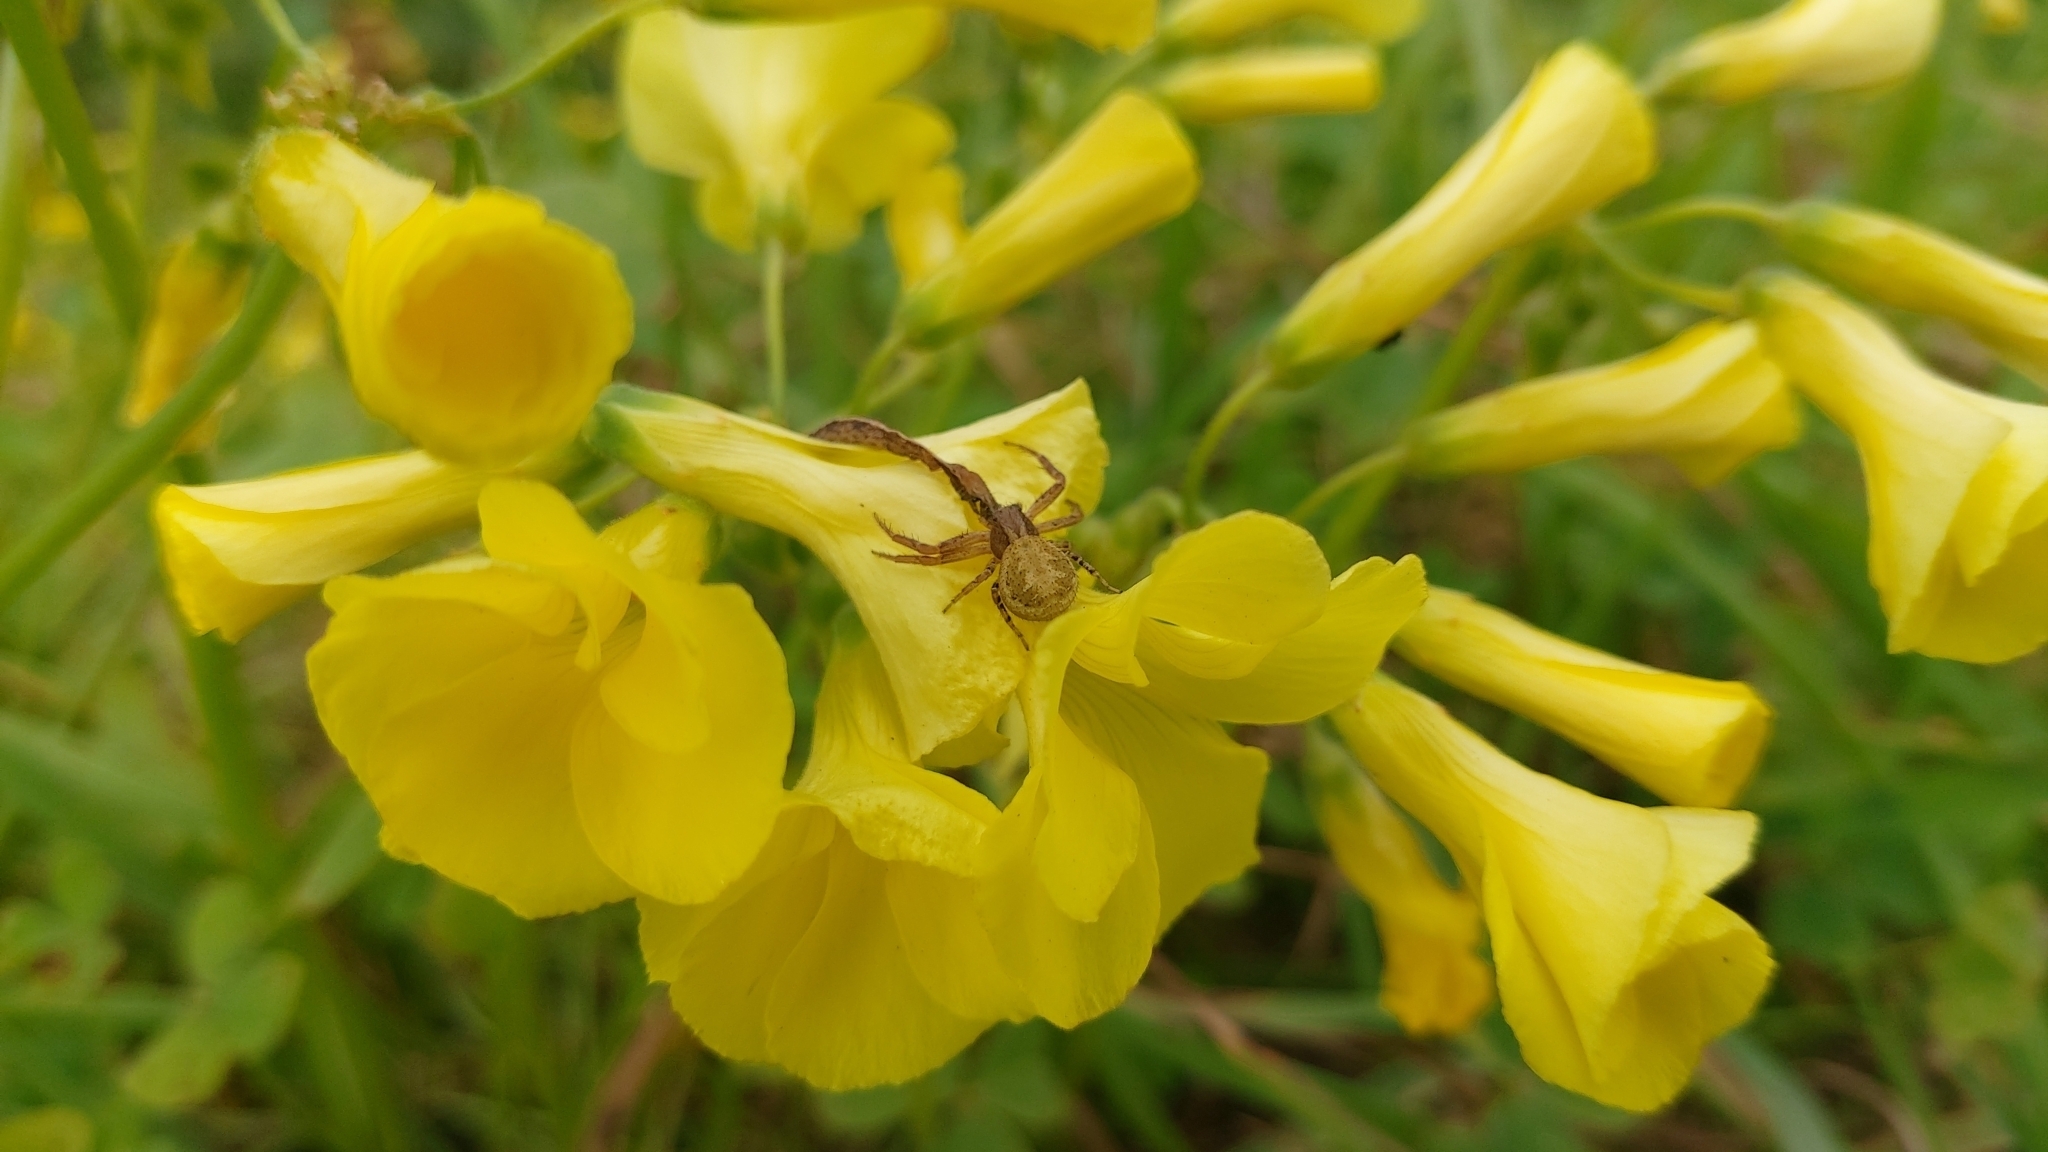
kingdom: Plantae
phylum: Tracheophyta
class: Magnoliopsida
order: Oxalidales
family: Oxalidaceae
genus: Oxalis
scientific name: Oxalis pes-caprae
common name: Bermuda-buttercup
